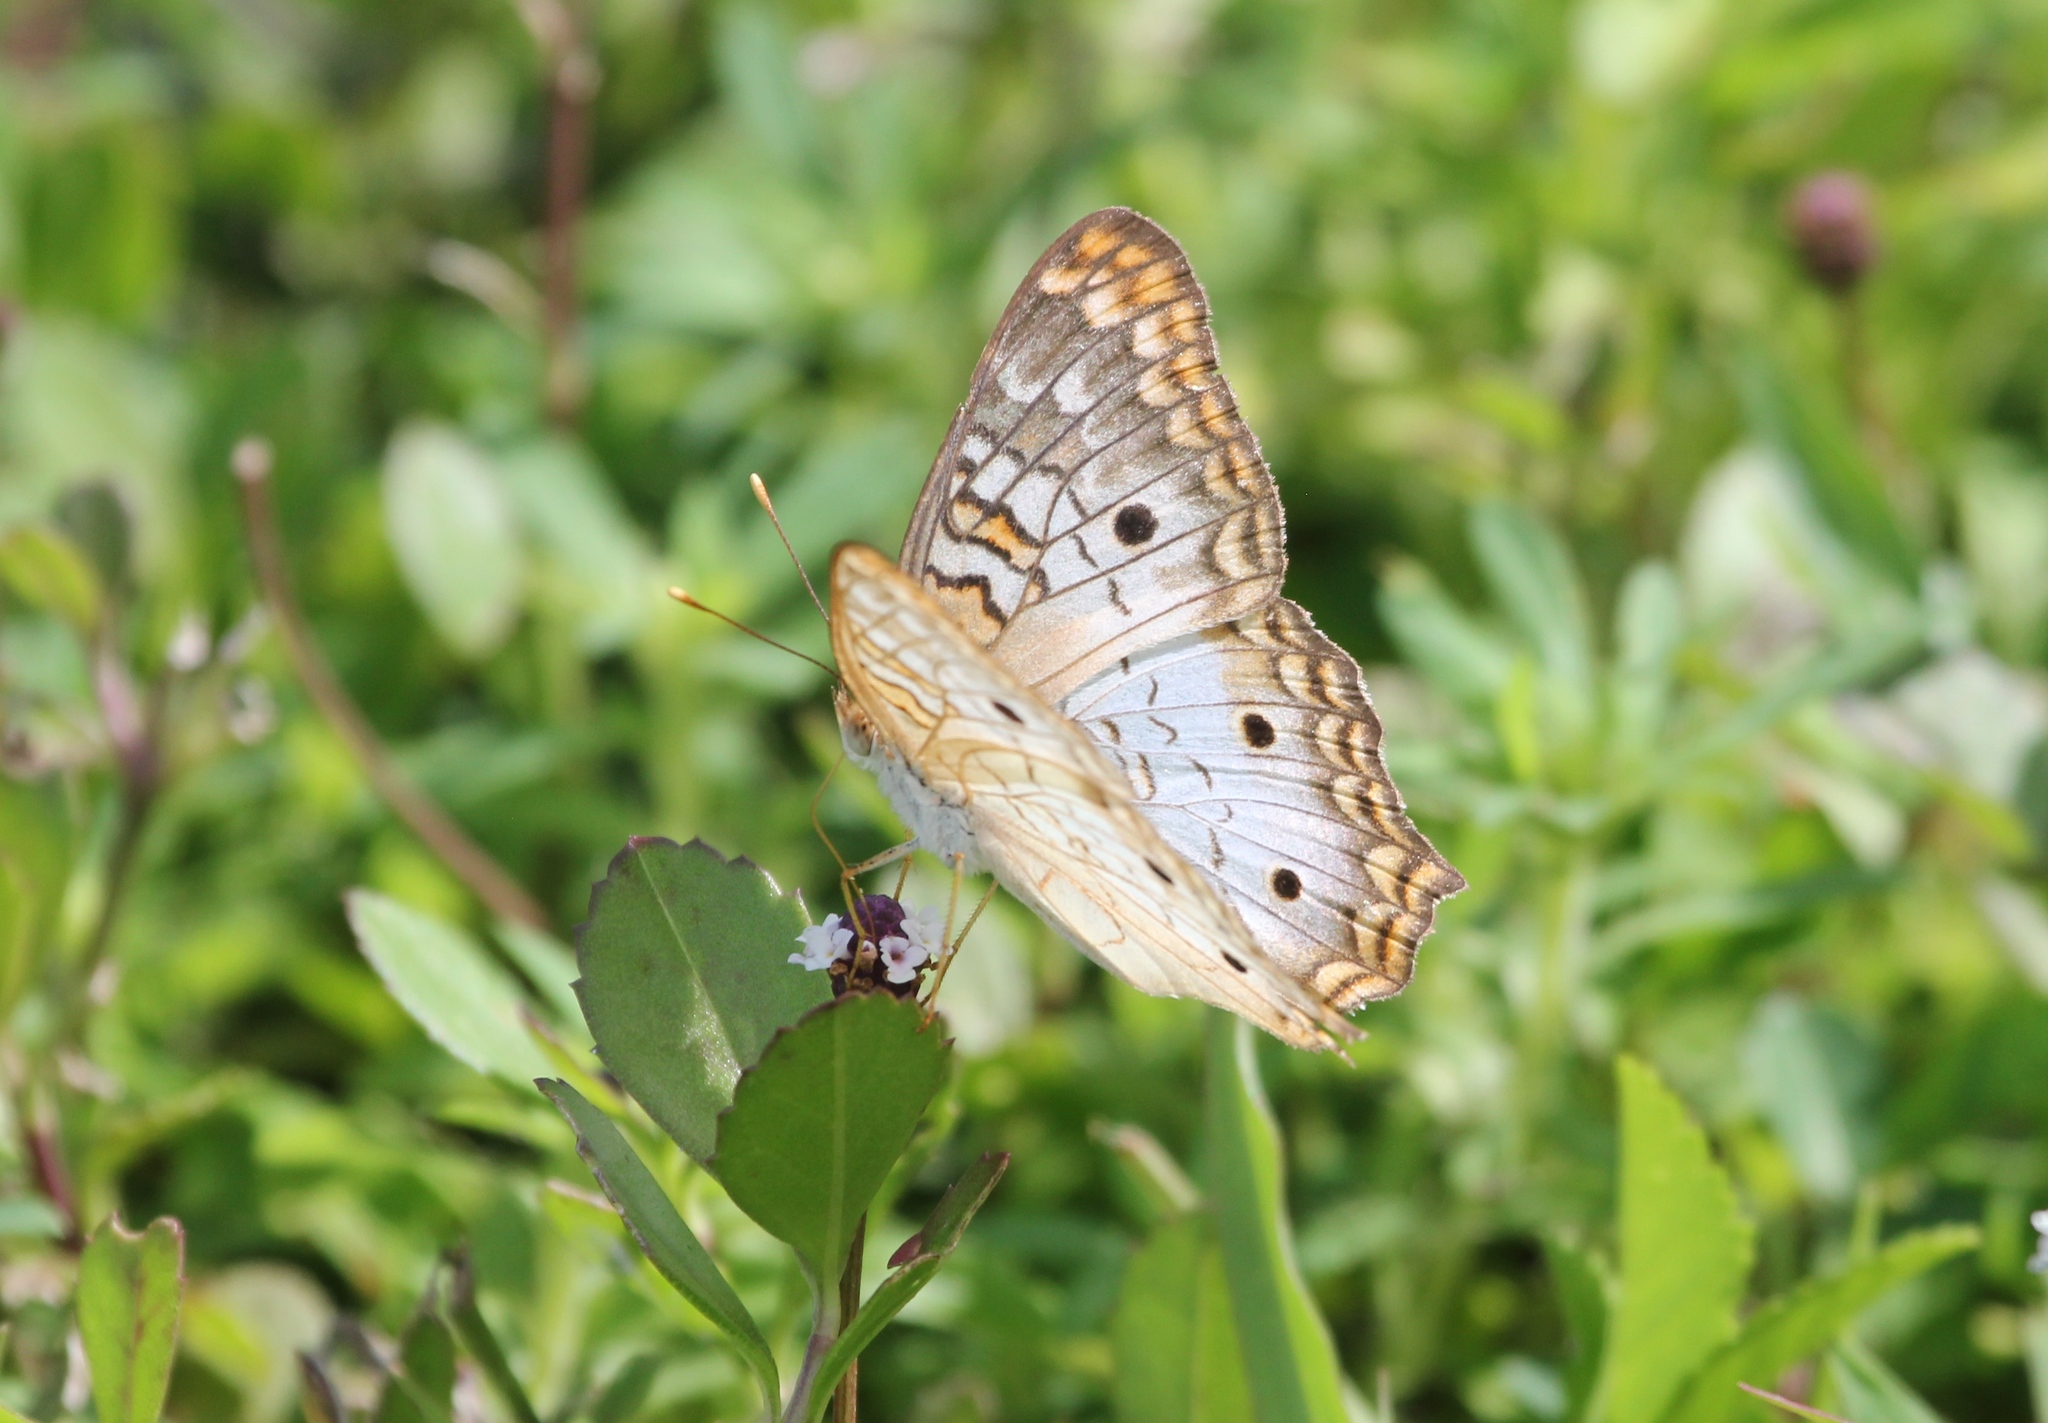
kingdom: Animalia
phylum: Arthropoda
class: Insecta
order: Lepidoptera
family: Nymphalidae
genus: Anartia
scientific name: Anartia jatrophae
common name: White peacock
